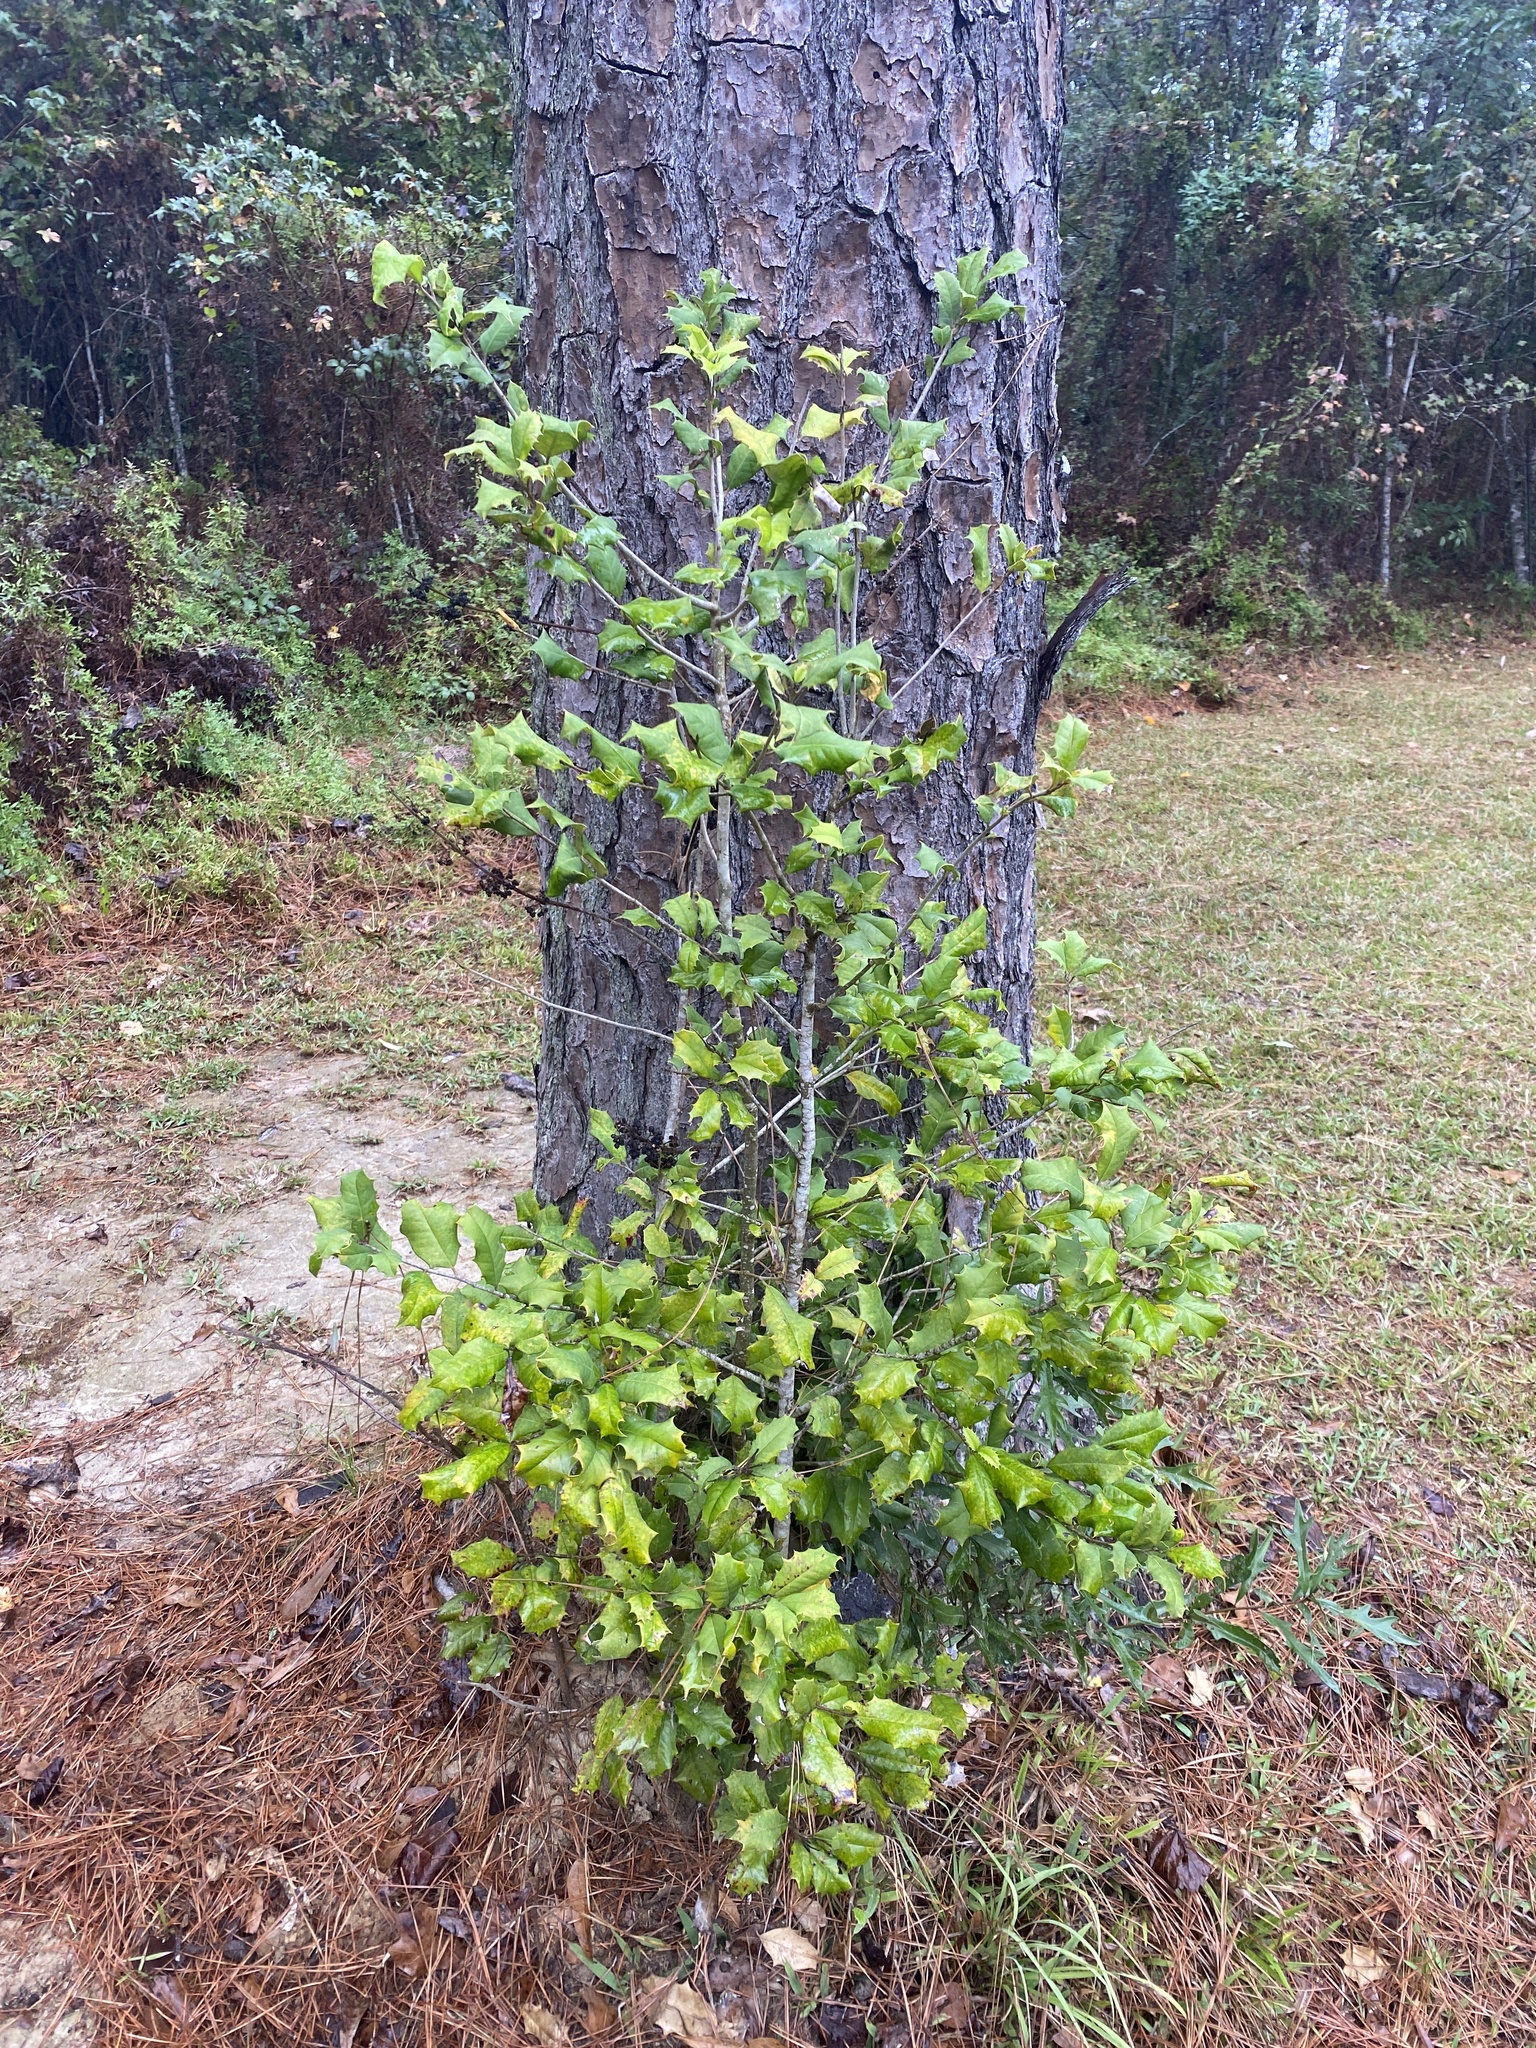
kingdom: Plantae
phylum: Tracheophyta
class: Magnoliopsida
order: Aquifoliales
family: Aquifoliaceae
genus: Ilex
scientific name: Ilex opaca
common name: American holly
